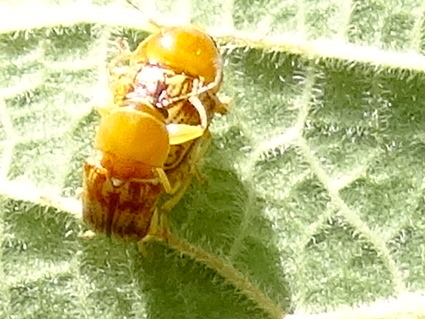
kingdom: Animalia
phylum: Arthropoda
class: Insecta
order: Coleoptera
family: Chrysomelidae
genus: Cryptocephalus
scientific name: Cryptocephalus
